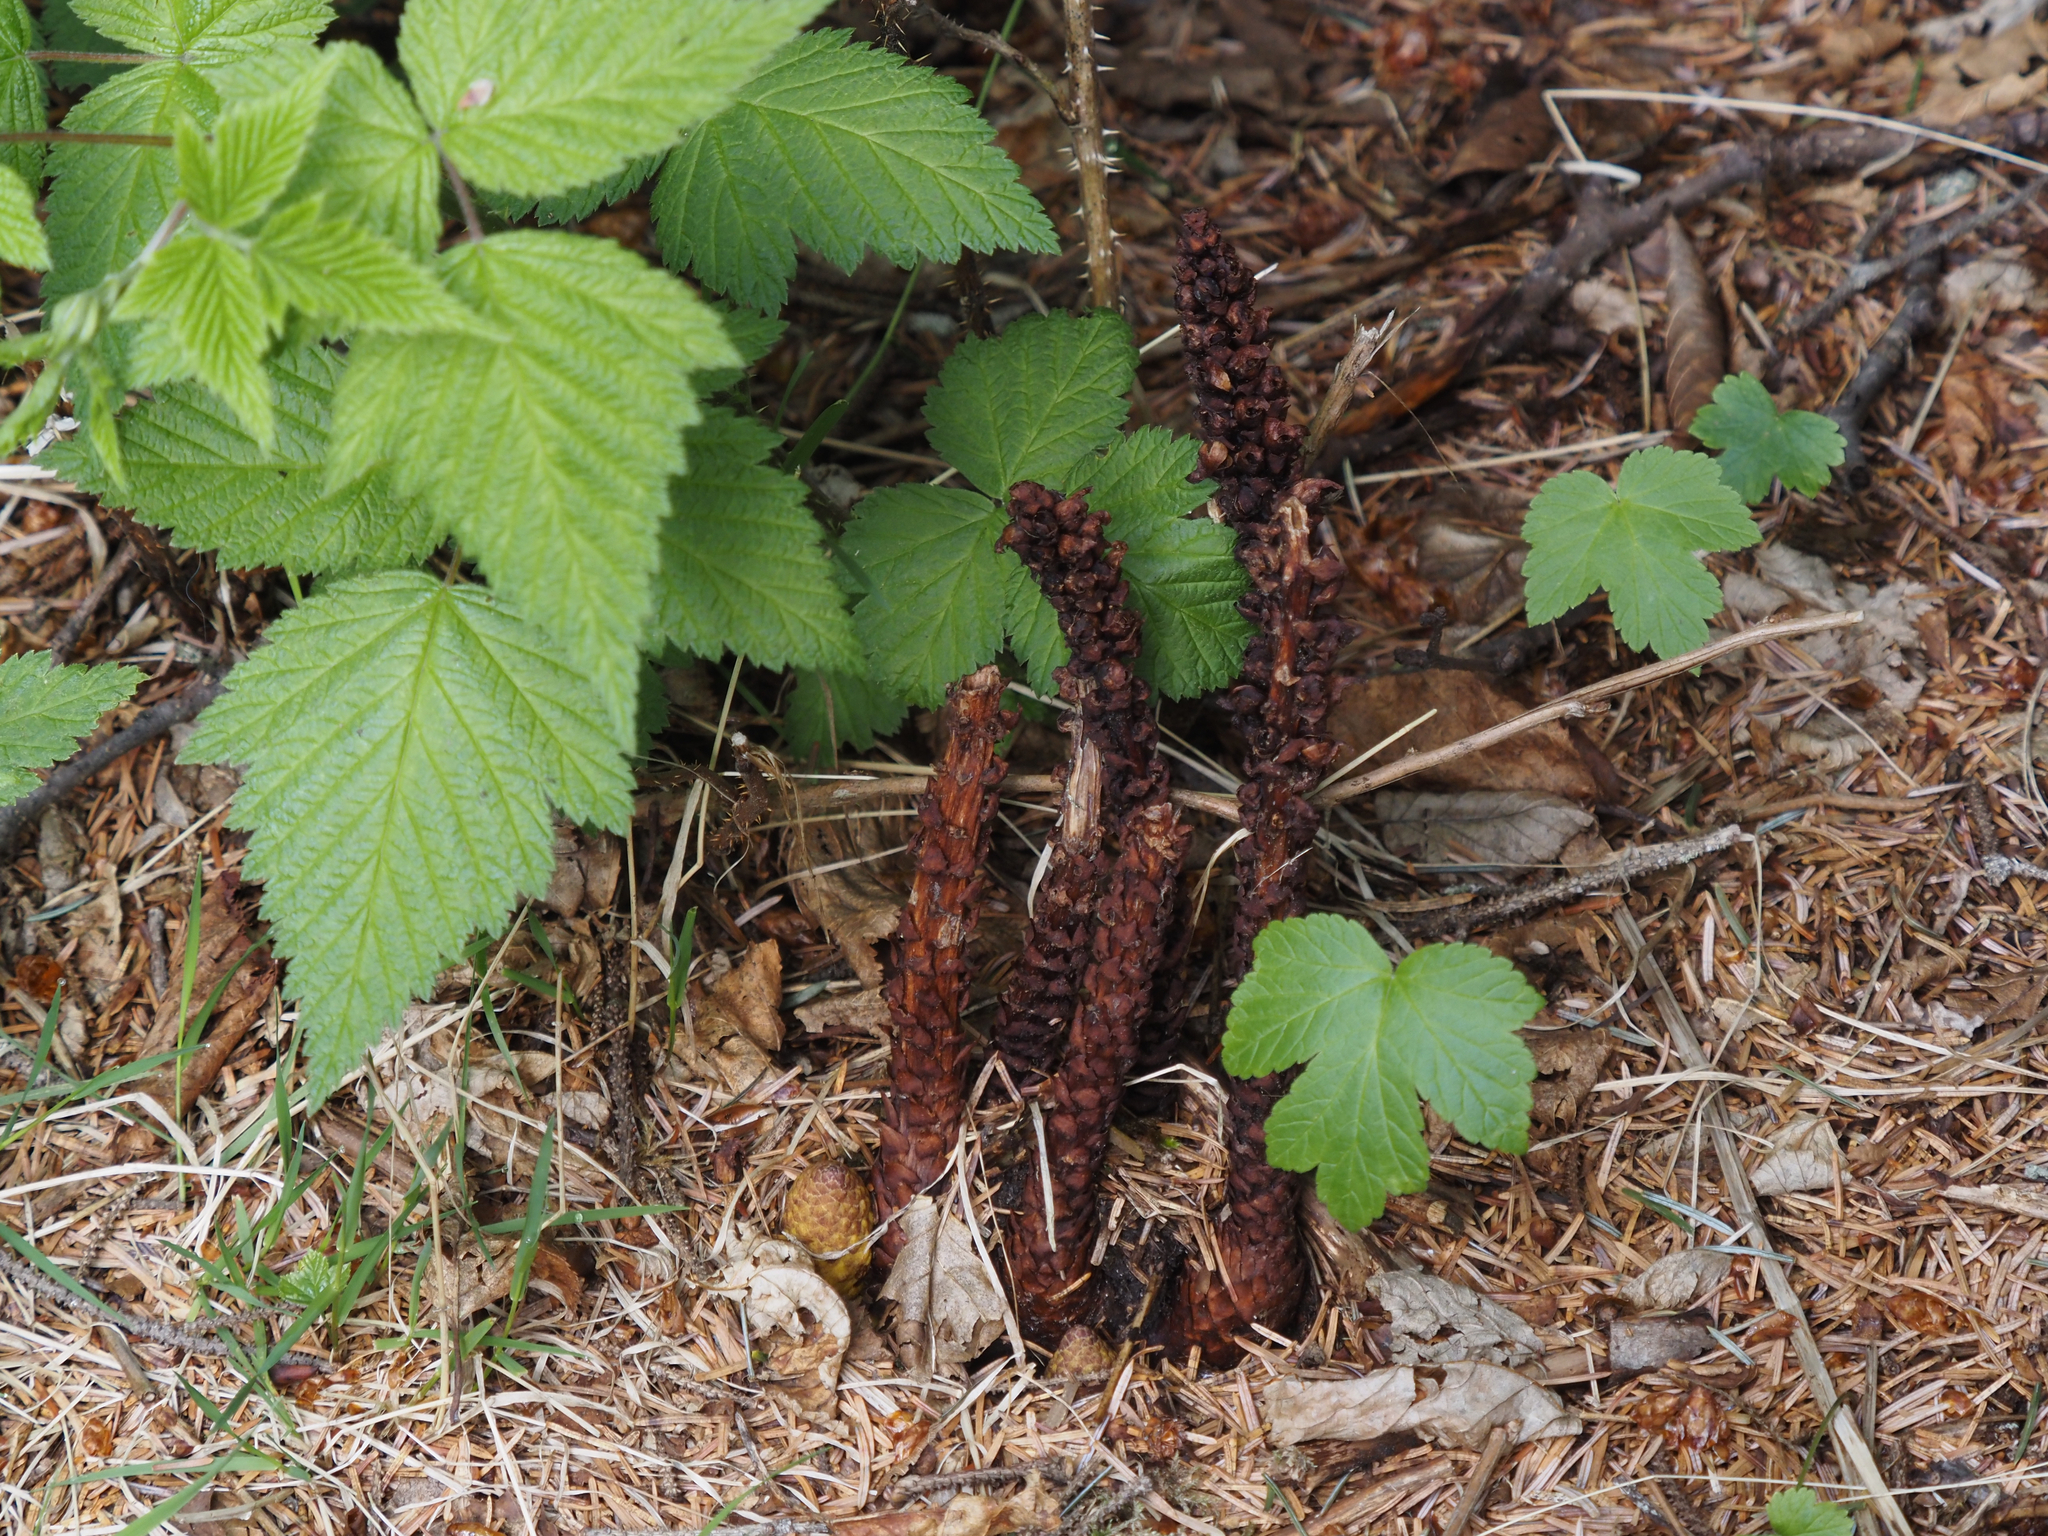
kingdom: Plantae
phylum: Tracheophyta
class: Magnoliopsida
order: Lamiales
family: Orobanchaceae
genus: Boschniakia
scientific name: Boschniakia rossica
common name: Poque
